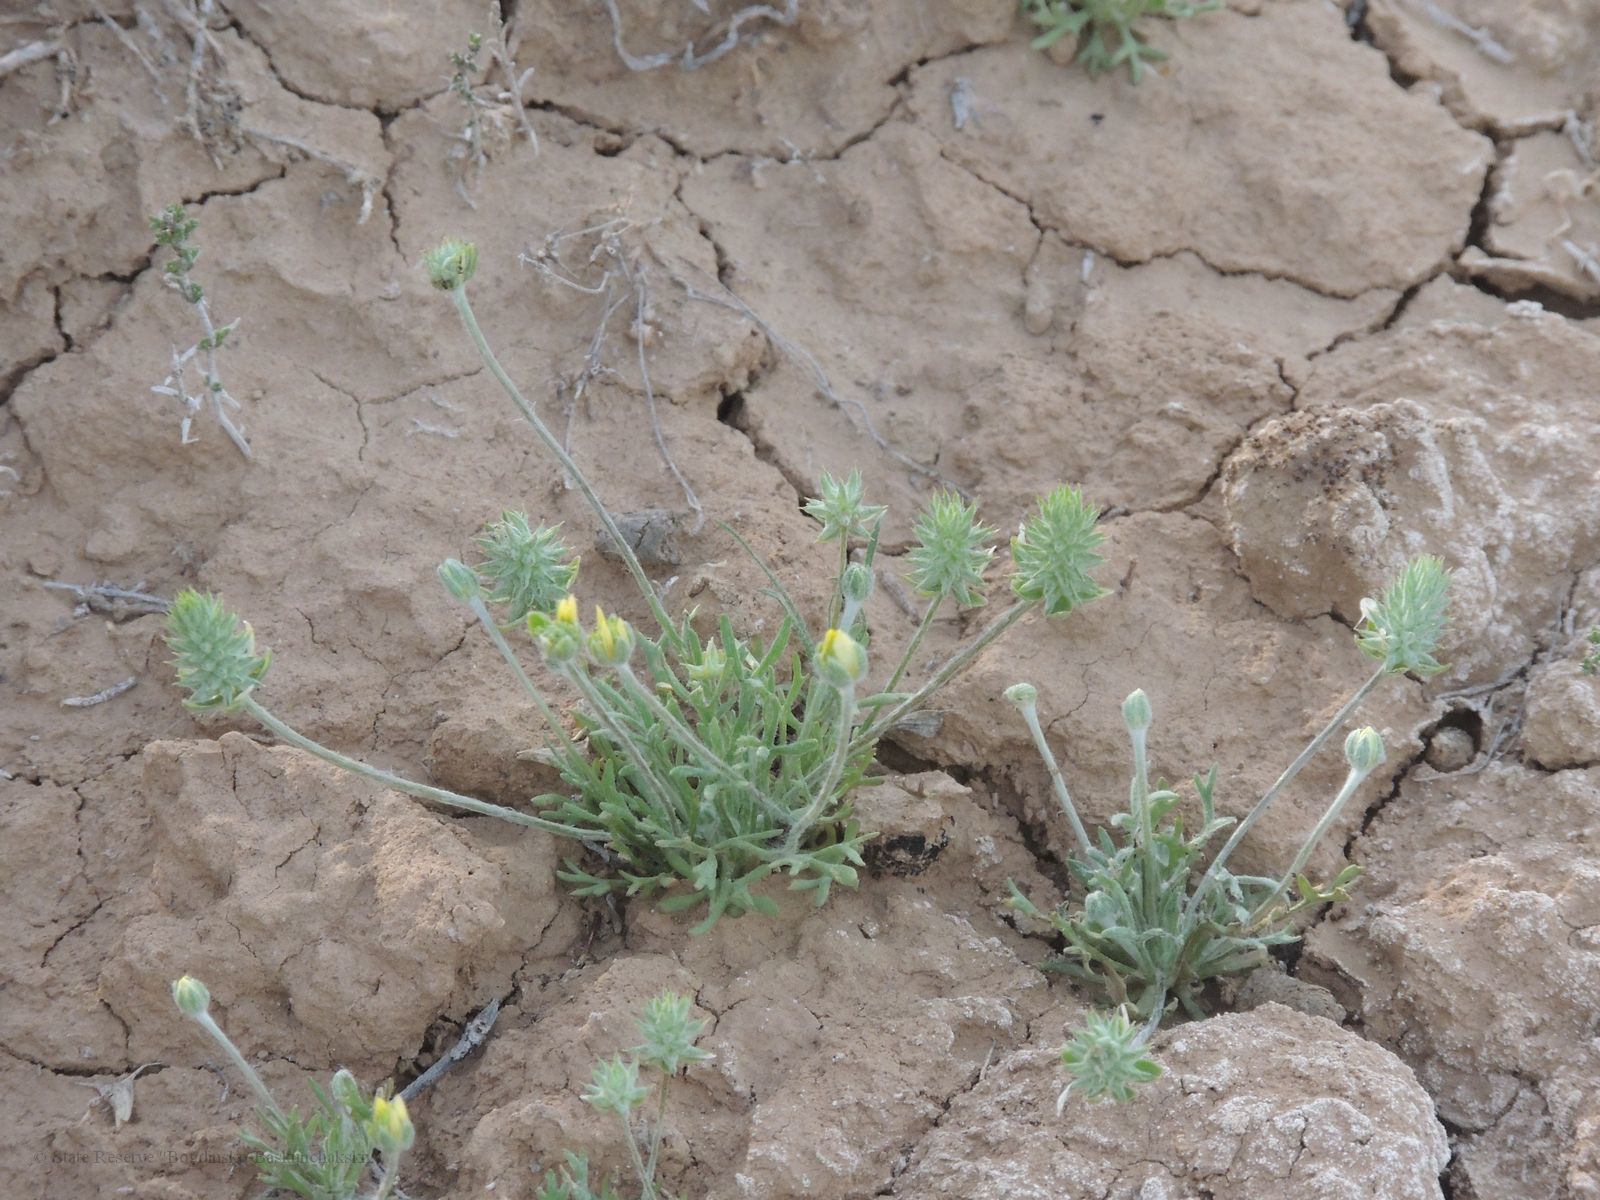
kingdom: Plantae
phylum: Tracheophyta
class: Magnoliopsida
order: Ranunculales
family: Ranunculaceae
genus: Ceratocephala
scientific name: Ceratocephala orthoceras
